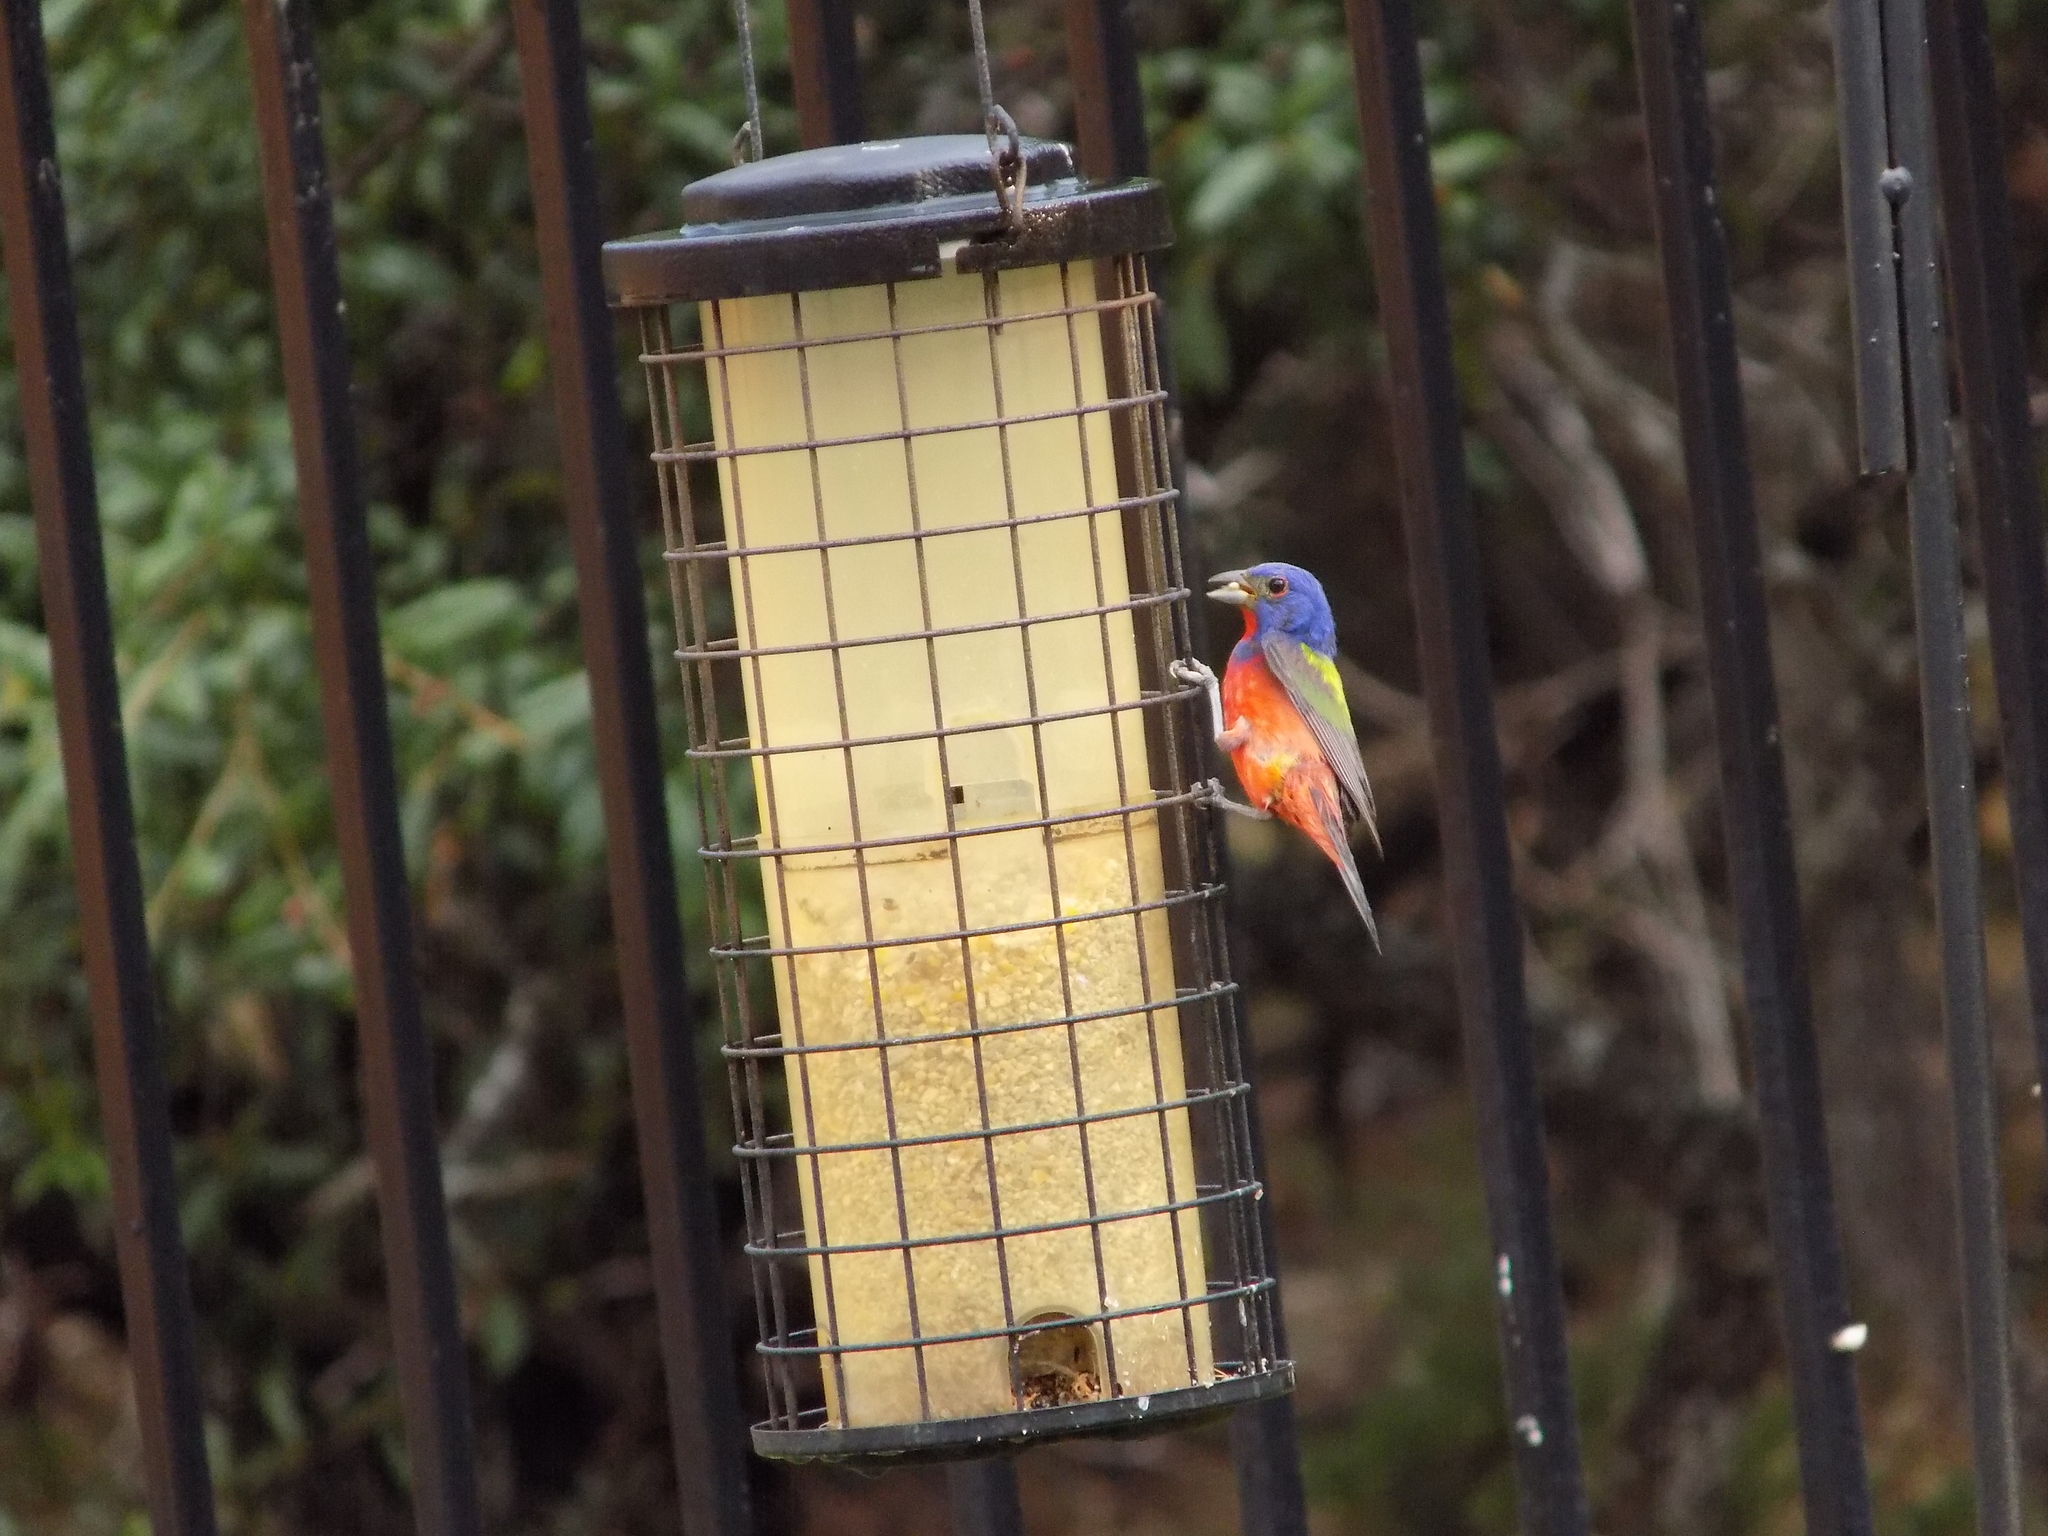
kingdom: Animalia
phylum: Chordata
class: Aves
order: Passeriformes
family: Cardinalidae
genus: Passerina
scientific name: Passerina ciris
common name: Painted bunting
